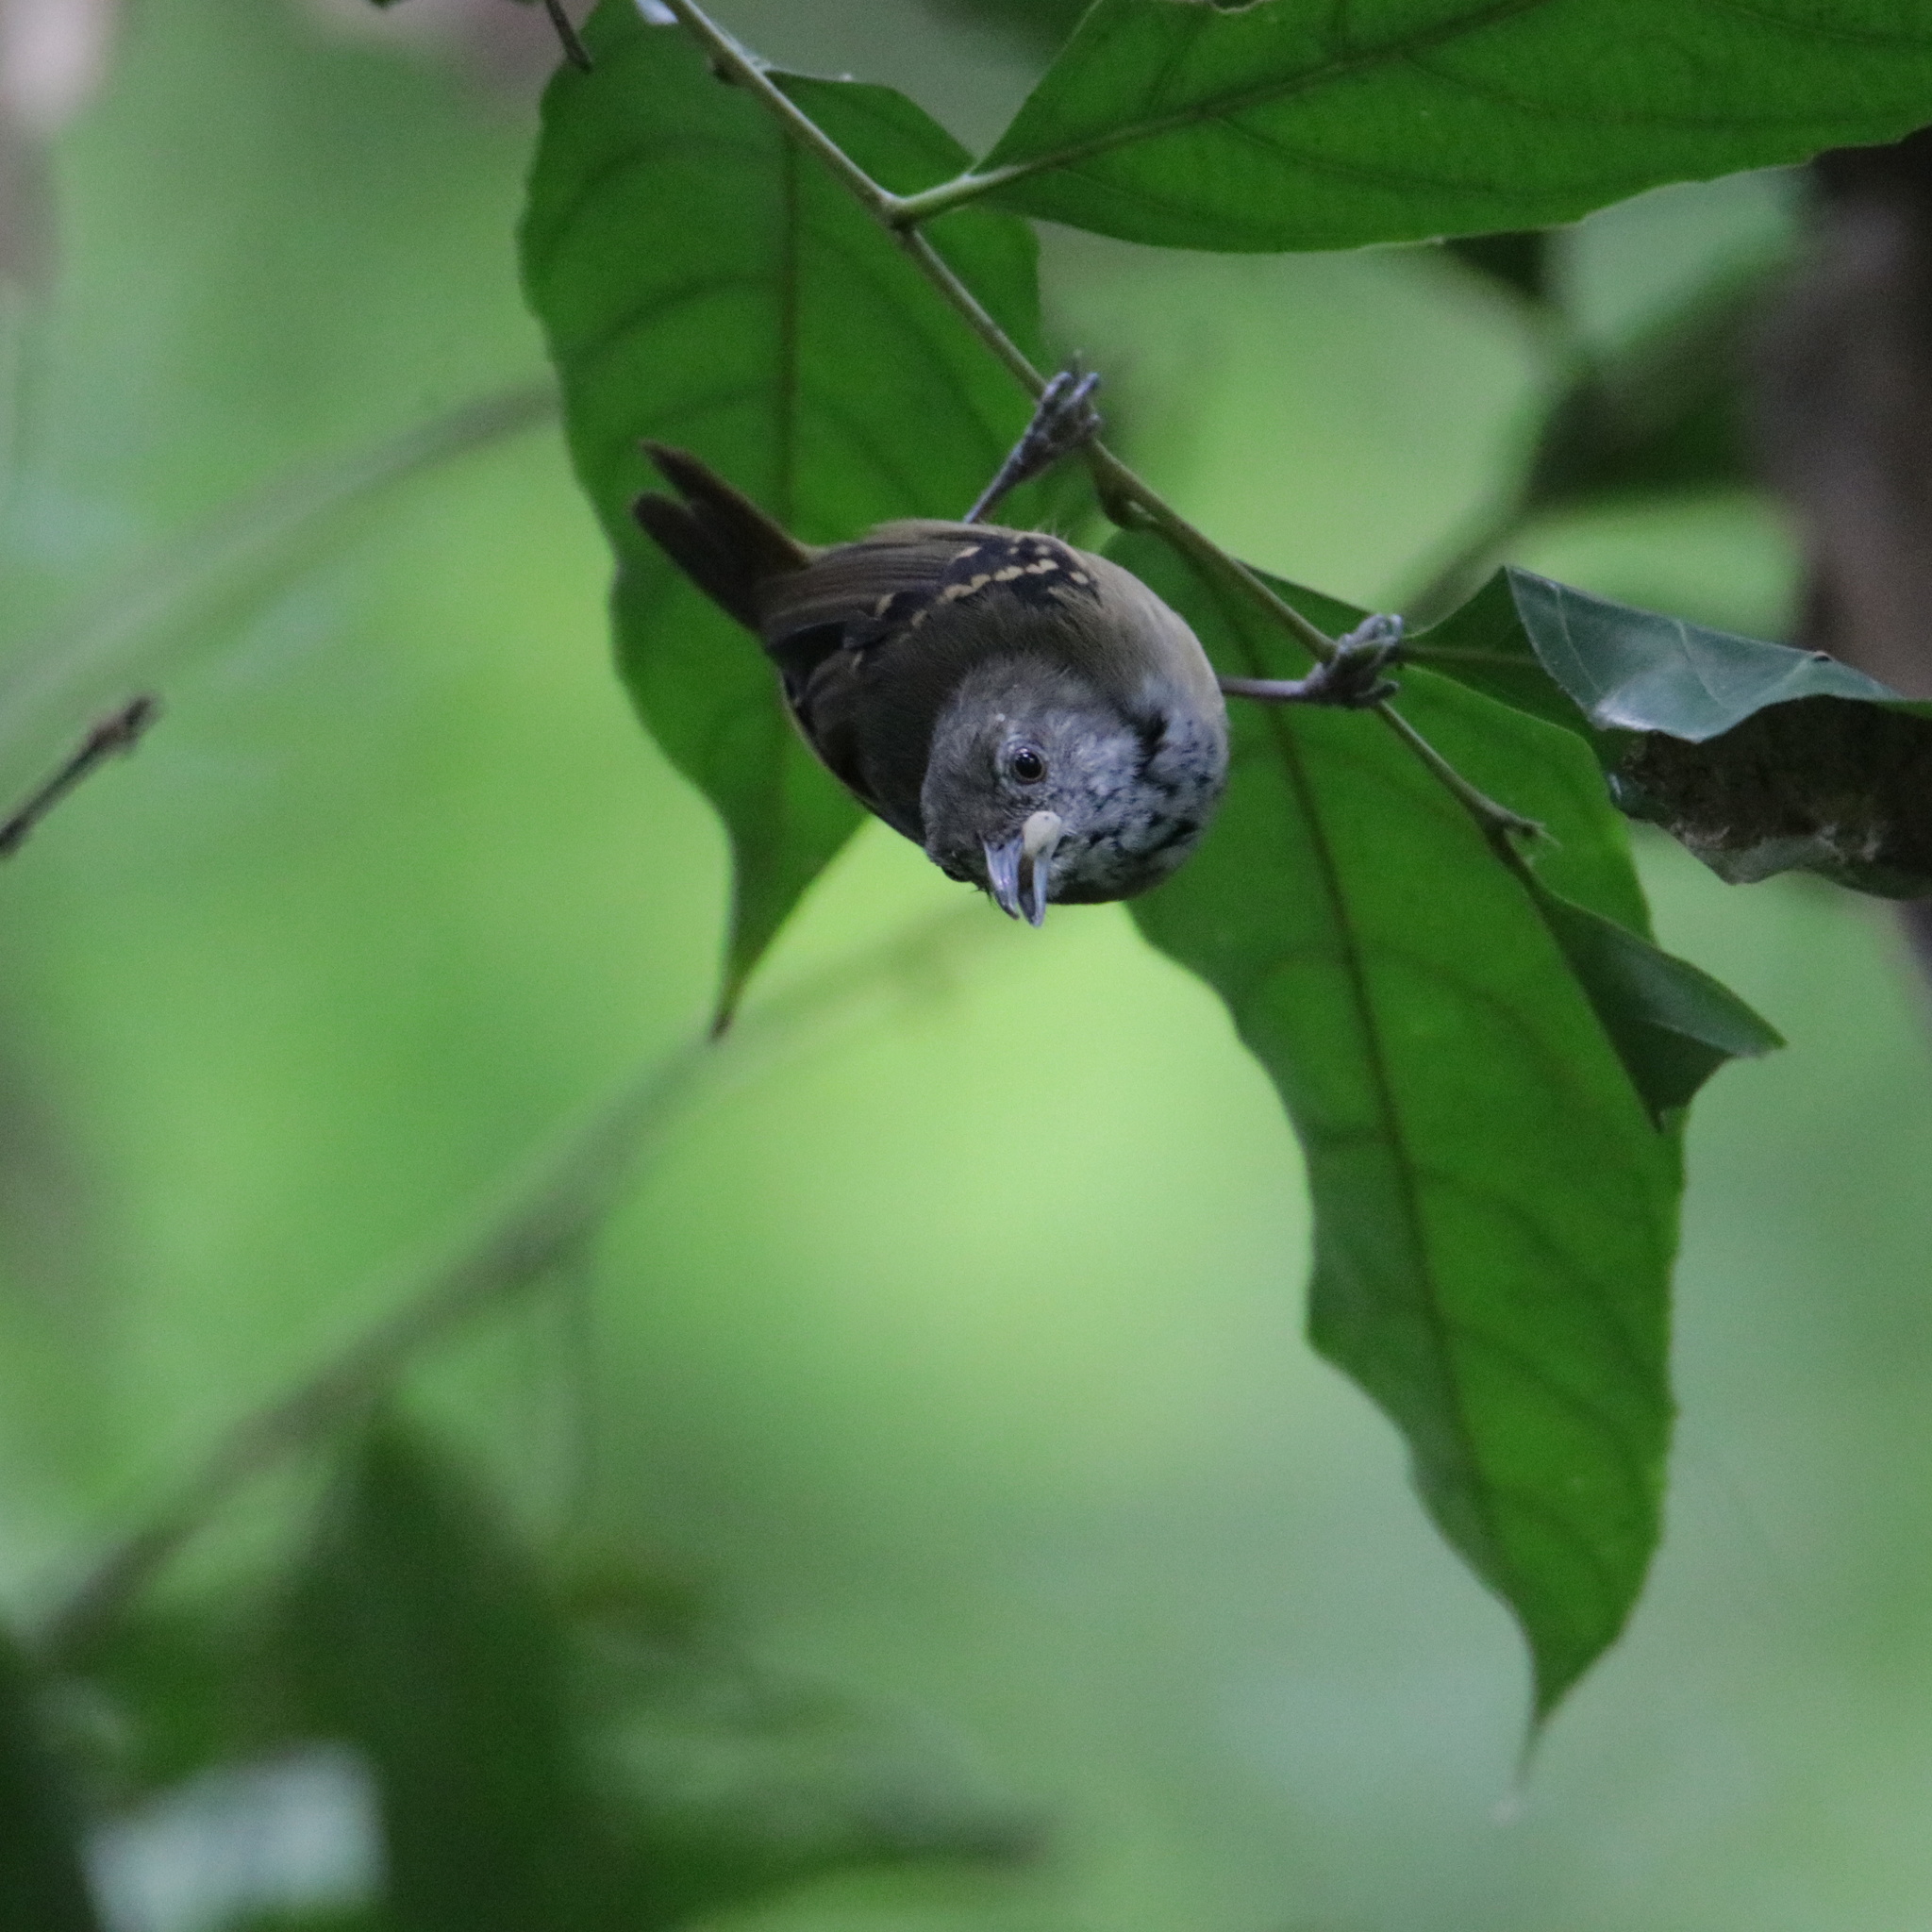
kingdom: Animalia
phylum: Chordata
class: Aves
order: Passeriformes
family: Thamnophilidae
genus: Epinecrophylla
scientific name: Epinecrophylla fulviventris
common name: Checker-throated antwren
